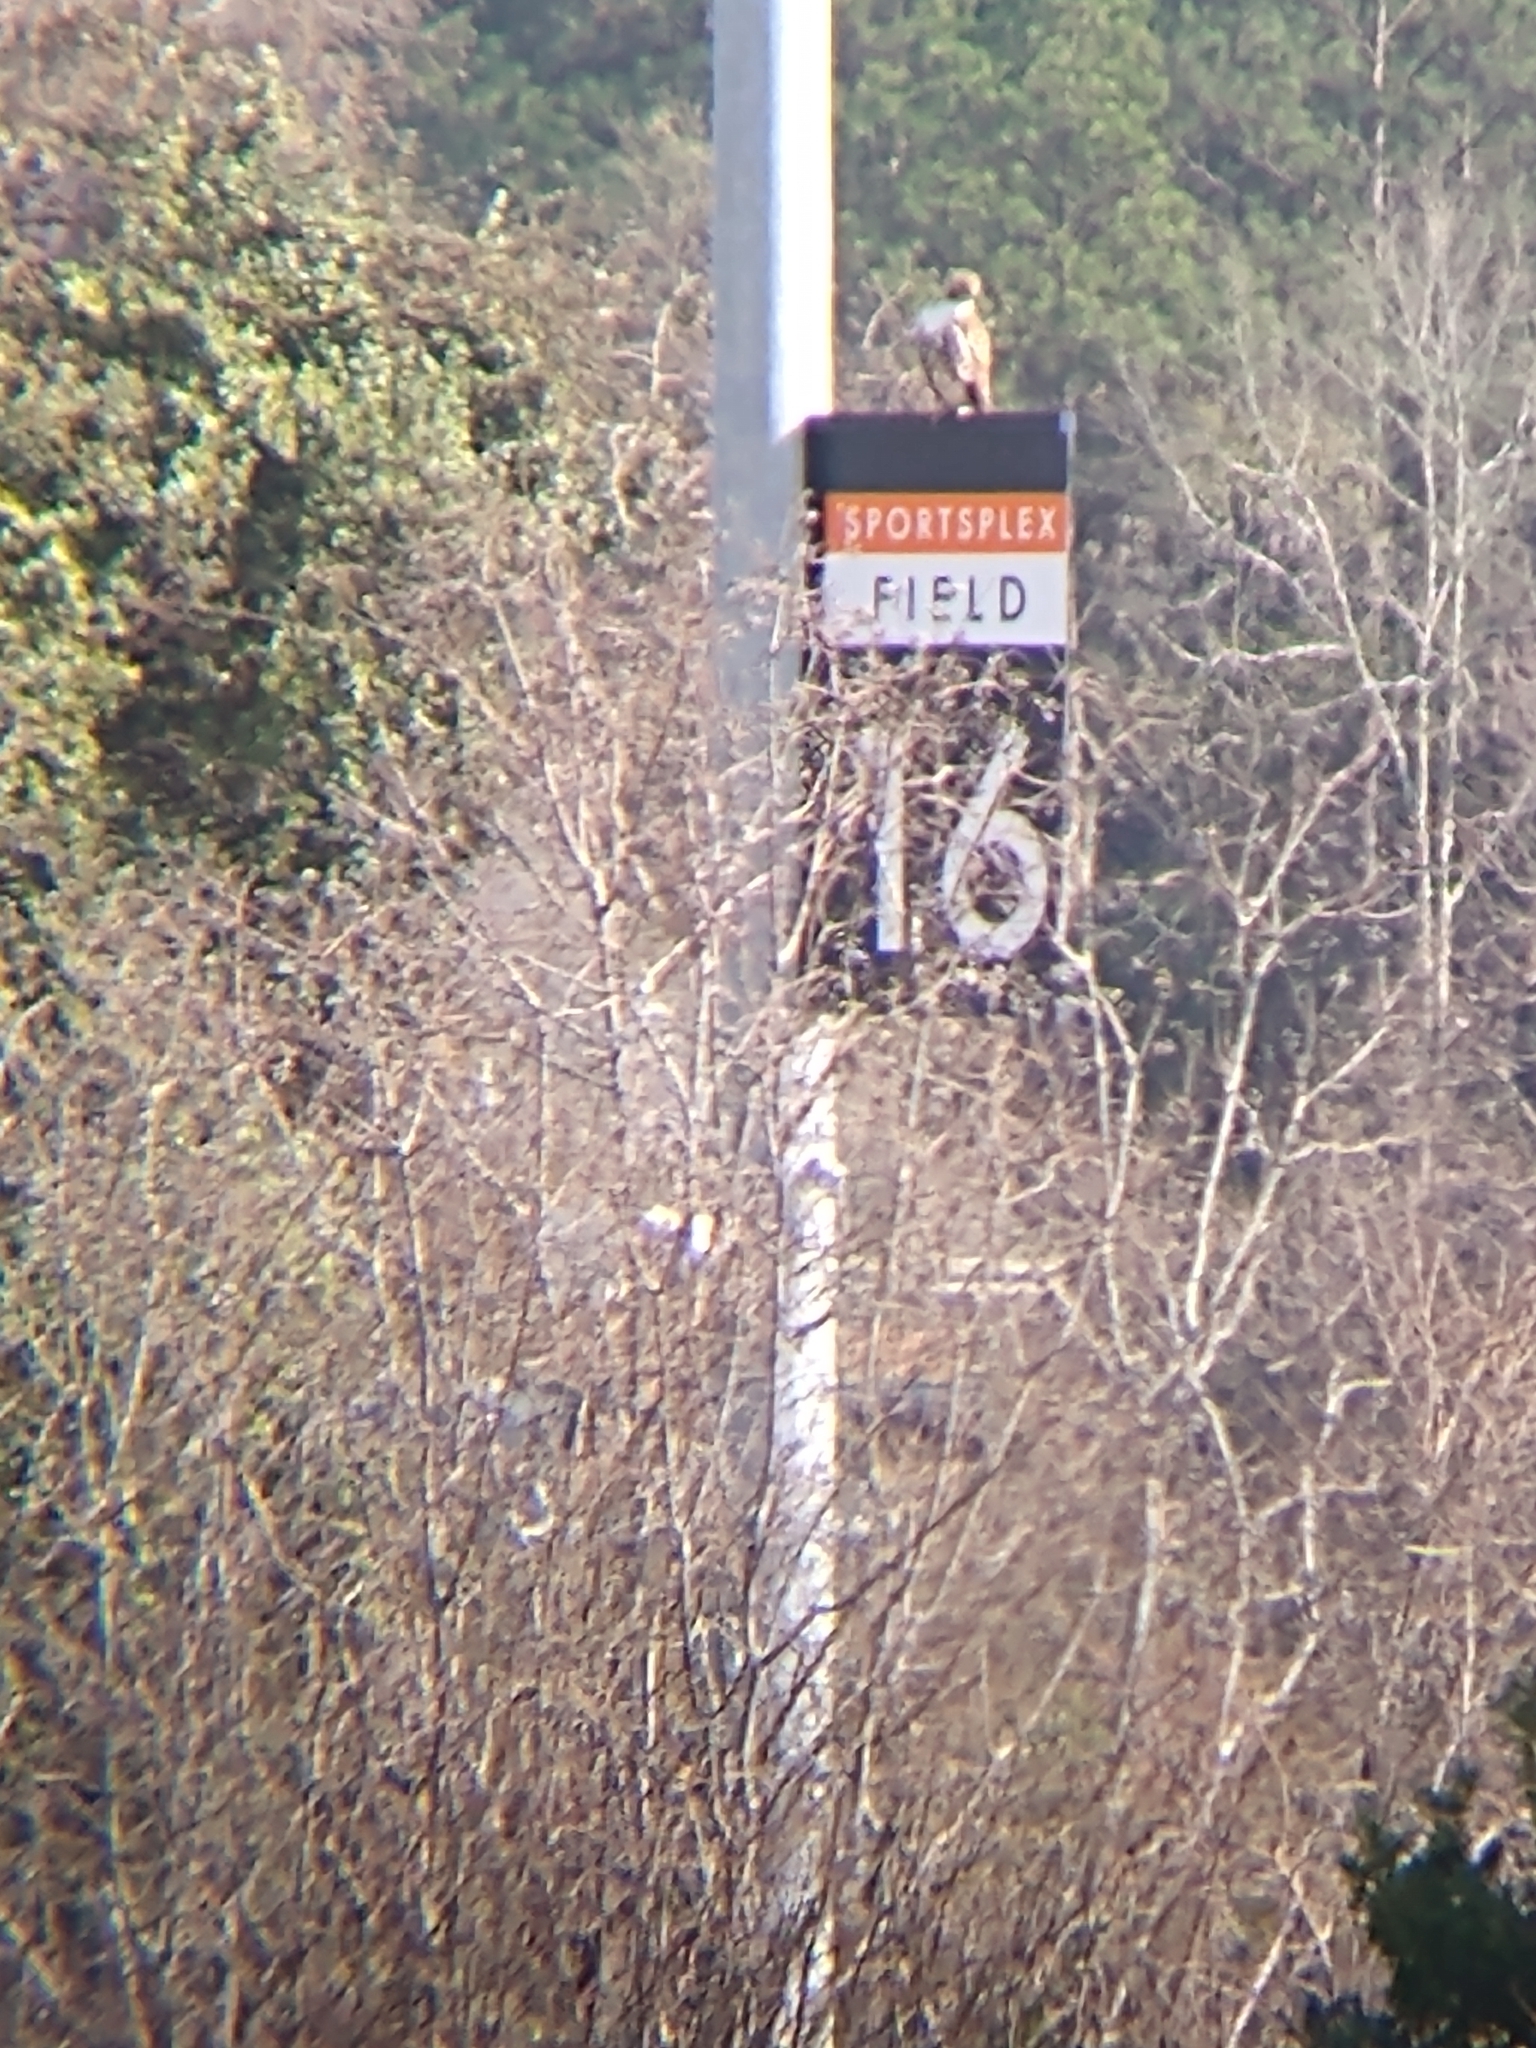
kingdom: Animalia
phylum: Chordata
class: Aves
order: Accipitriformes
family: Accipitridae
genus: Buteo
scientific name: Buteo jamaicensis
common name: Red-tailed hawk
